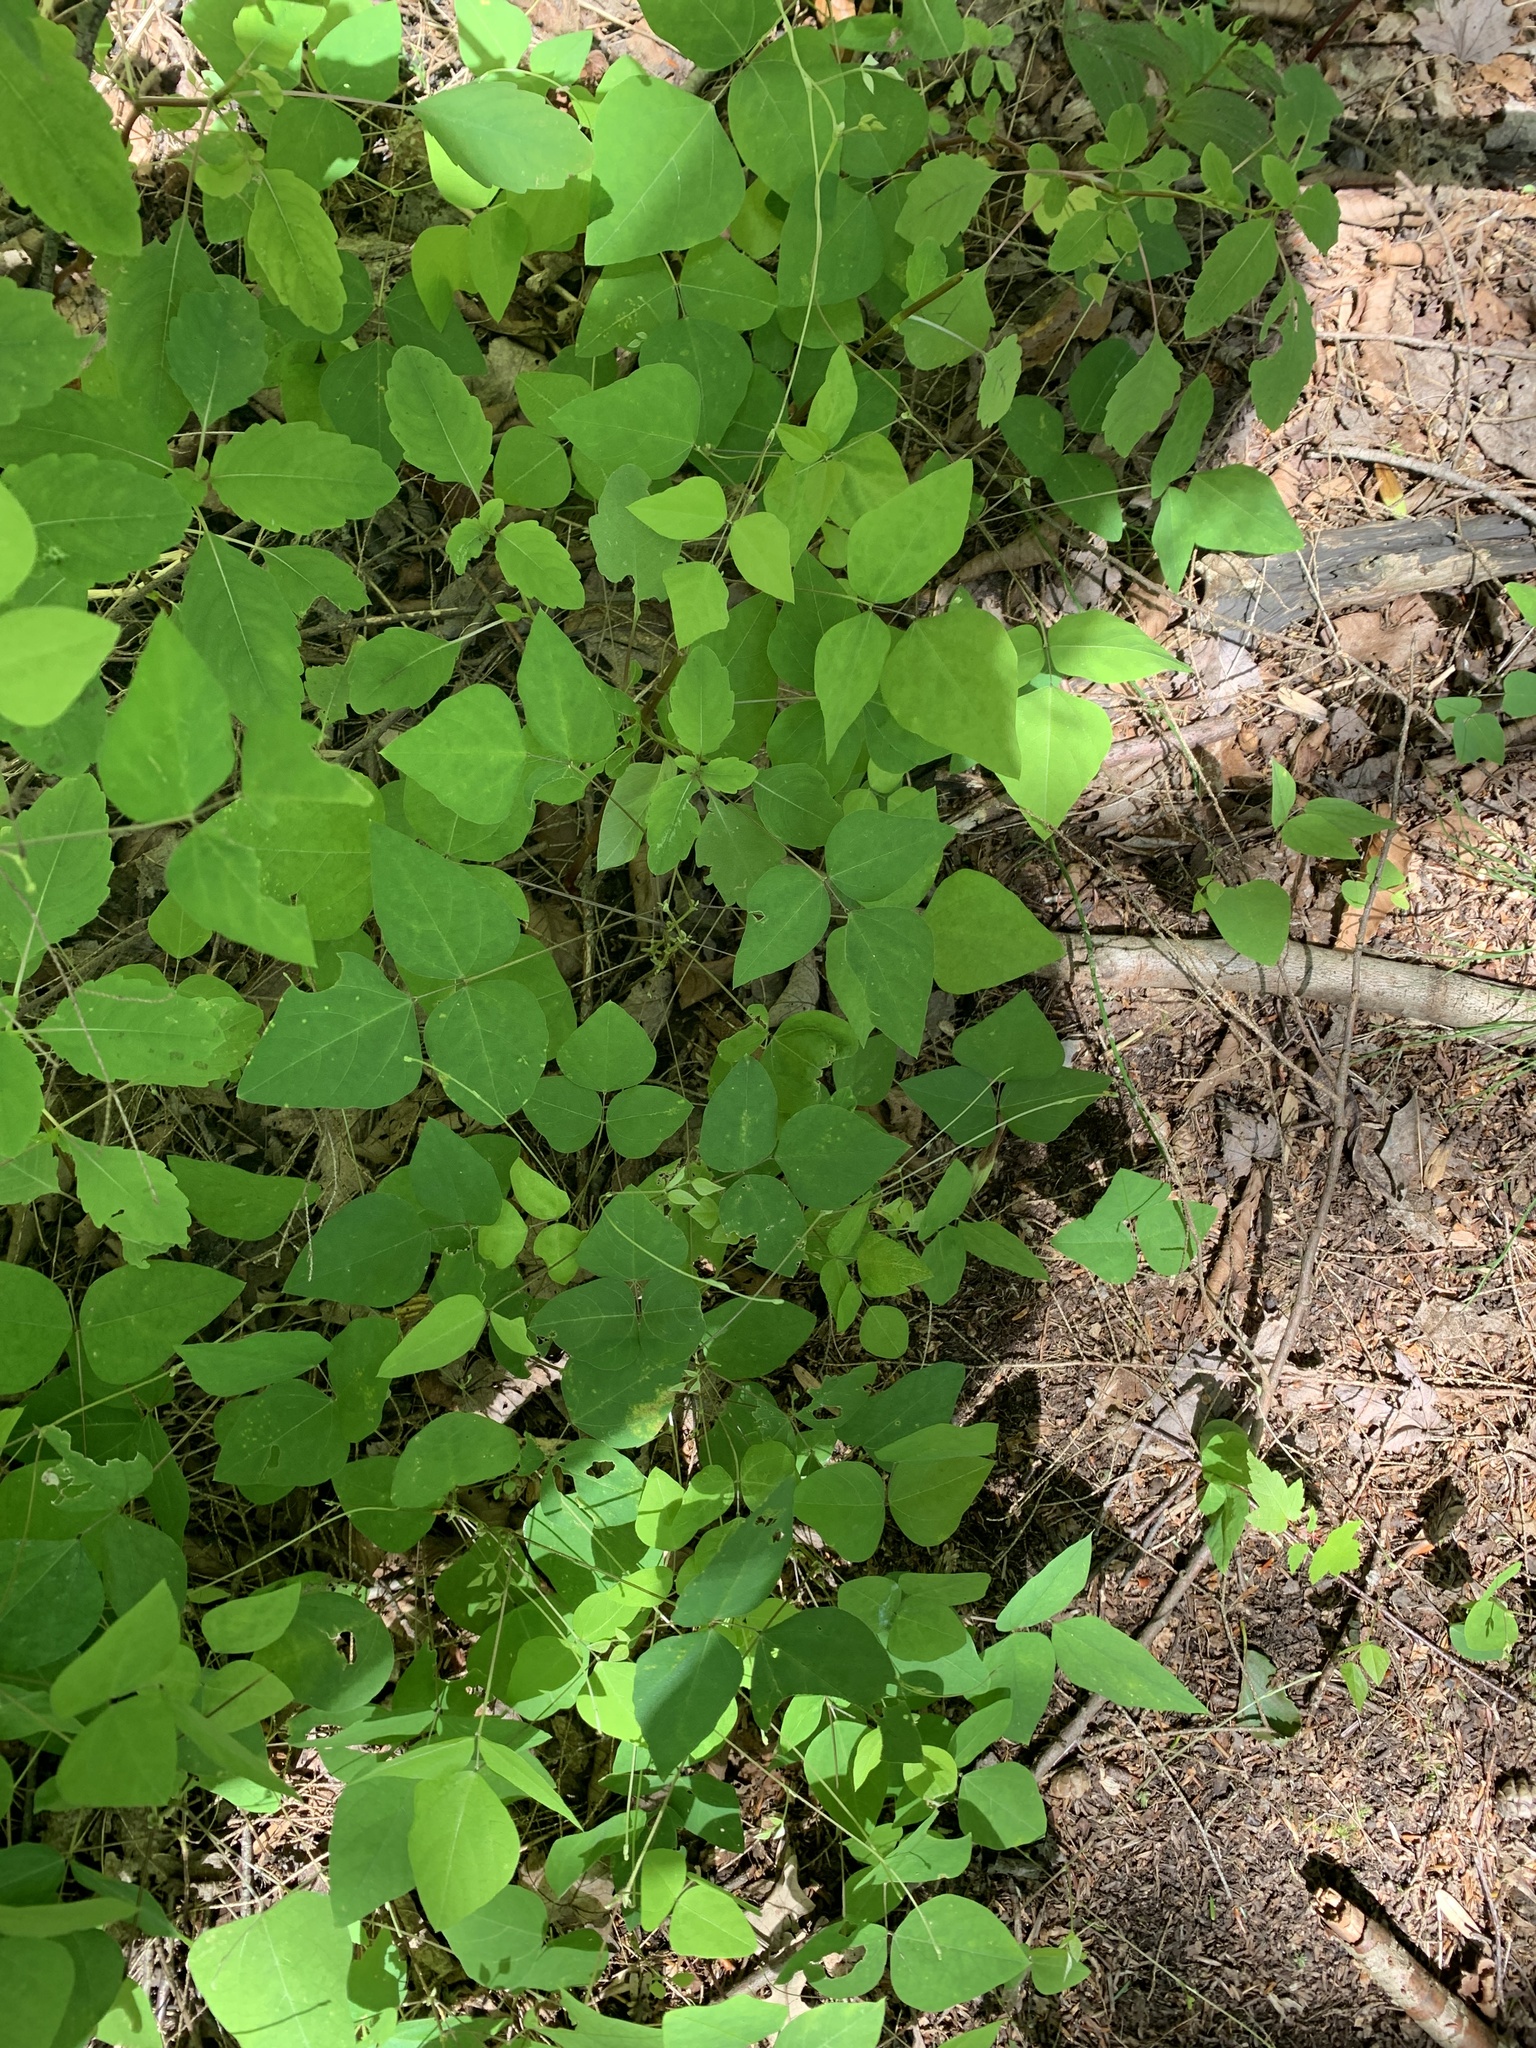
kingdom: Plantae
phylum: Tracheophyta
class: Magnoliopsida
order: Fabales
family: Fabaceae
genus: Amphicarpaea
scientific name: Amphicarpaea bracteata
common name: American hog peanut
